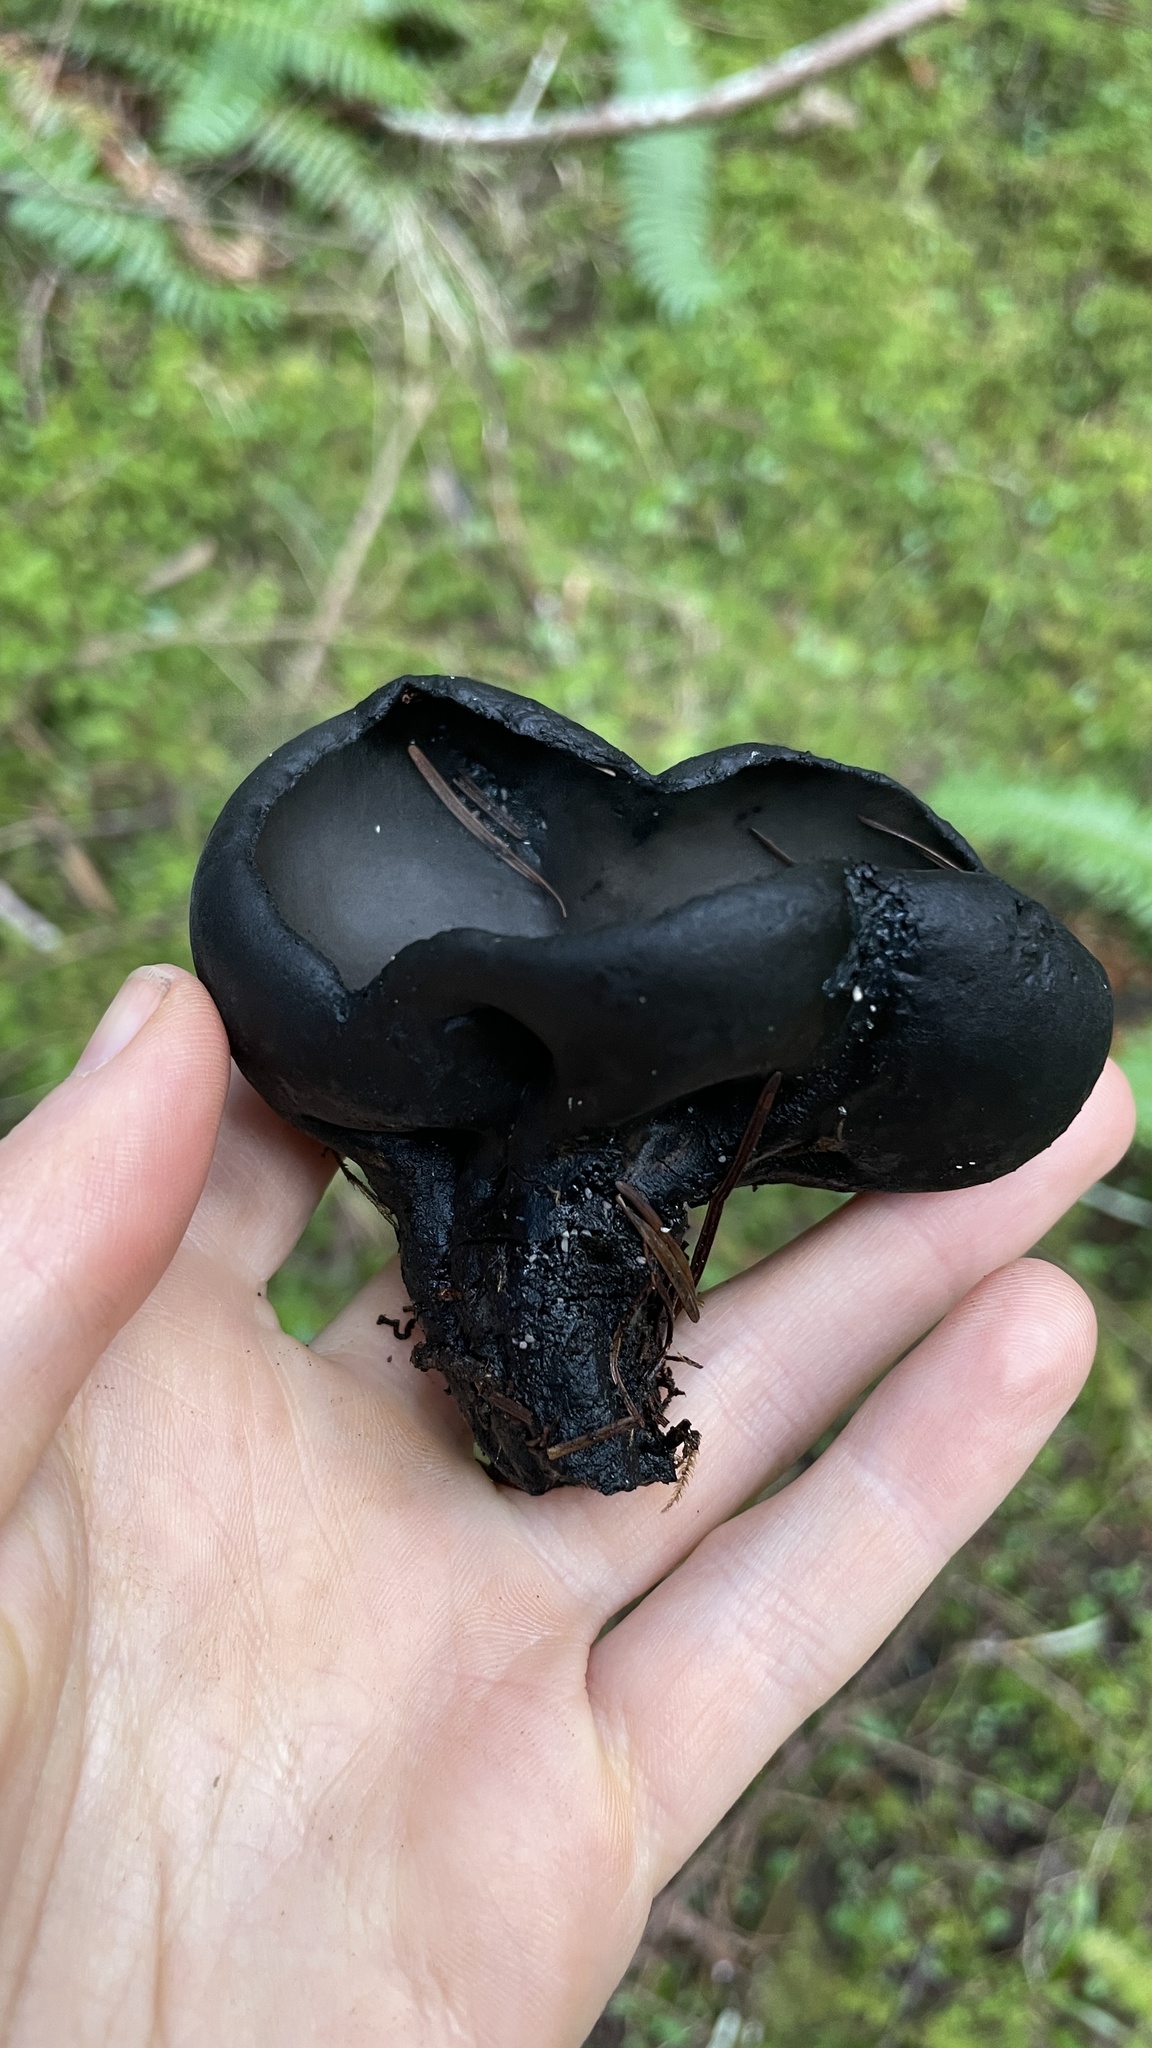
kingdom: Fungi
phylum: Ascomycota
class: Pezizomycetes
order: Pezizales
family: Sarcosomataceae
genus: Urnula
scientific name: Urnula padeniana
